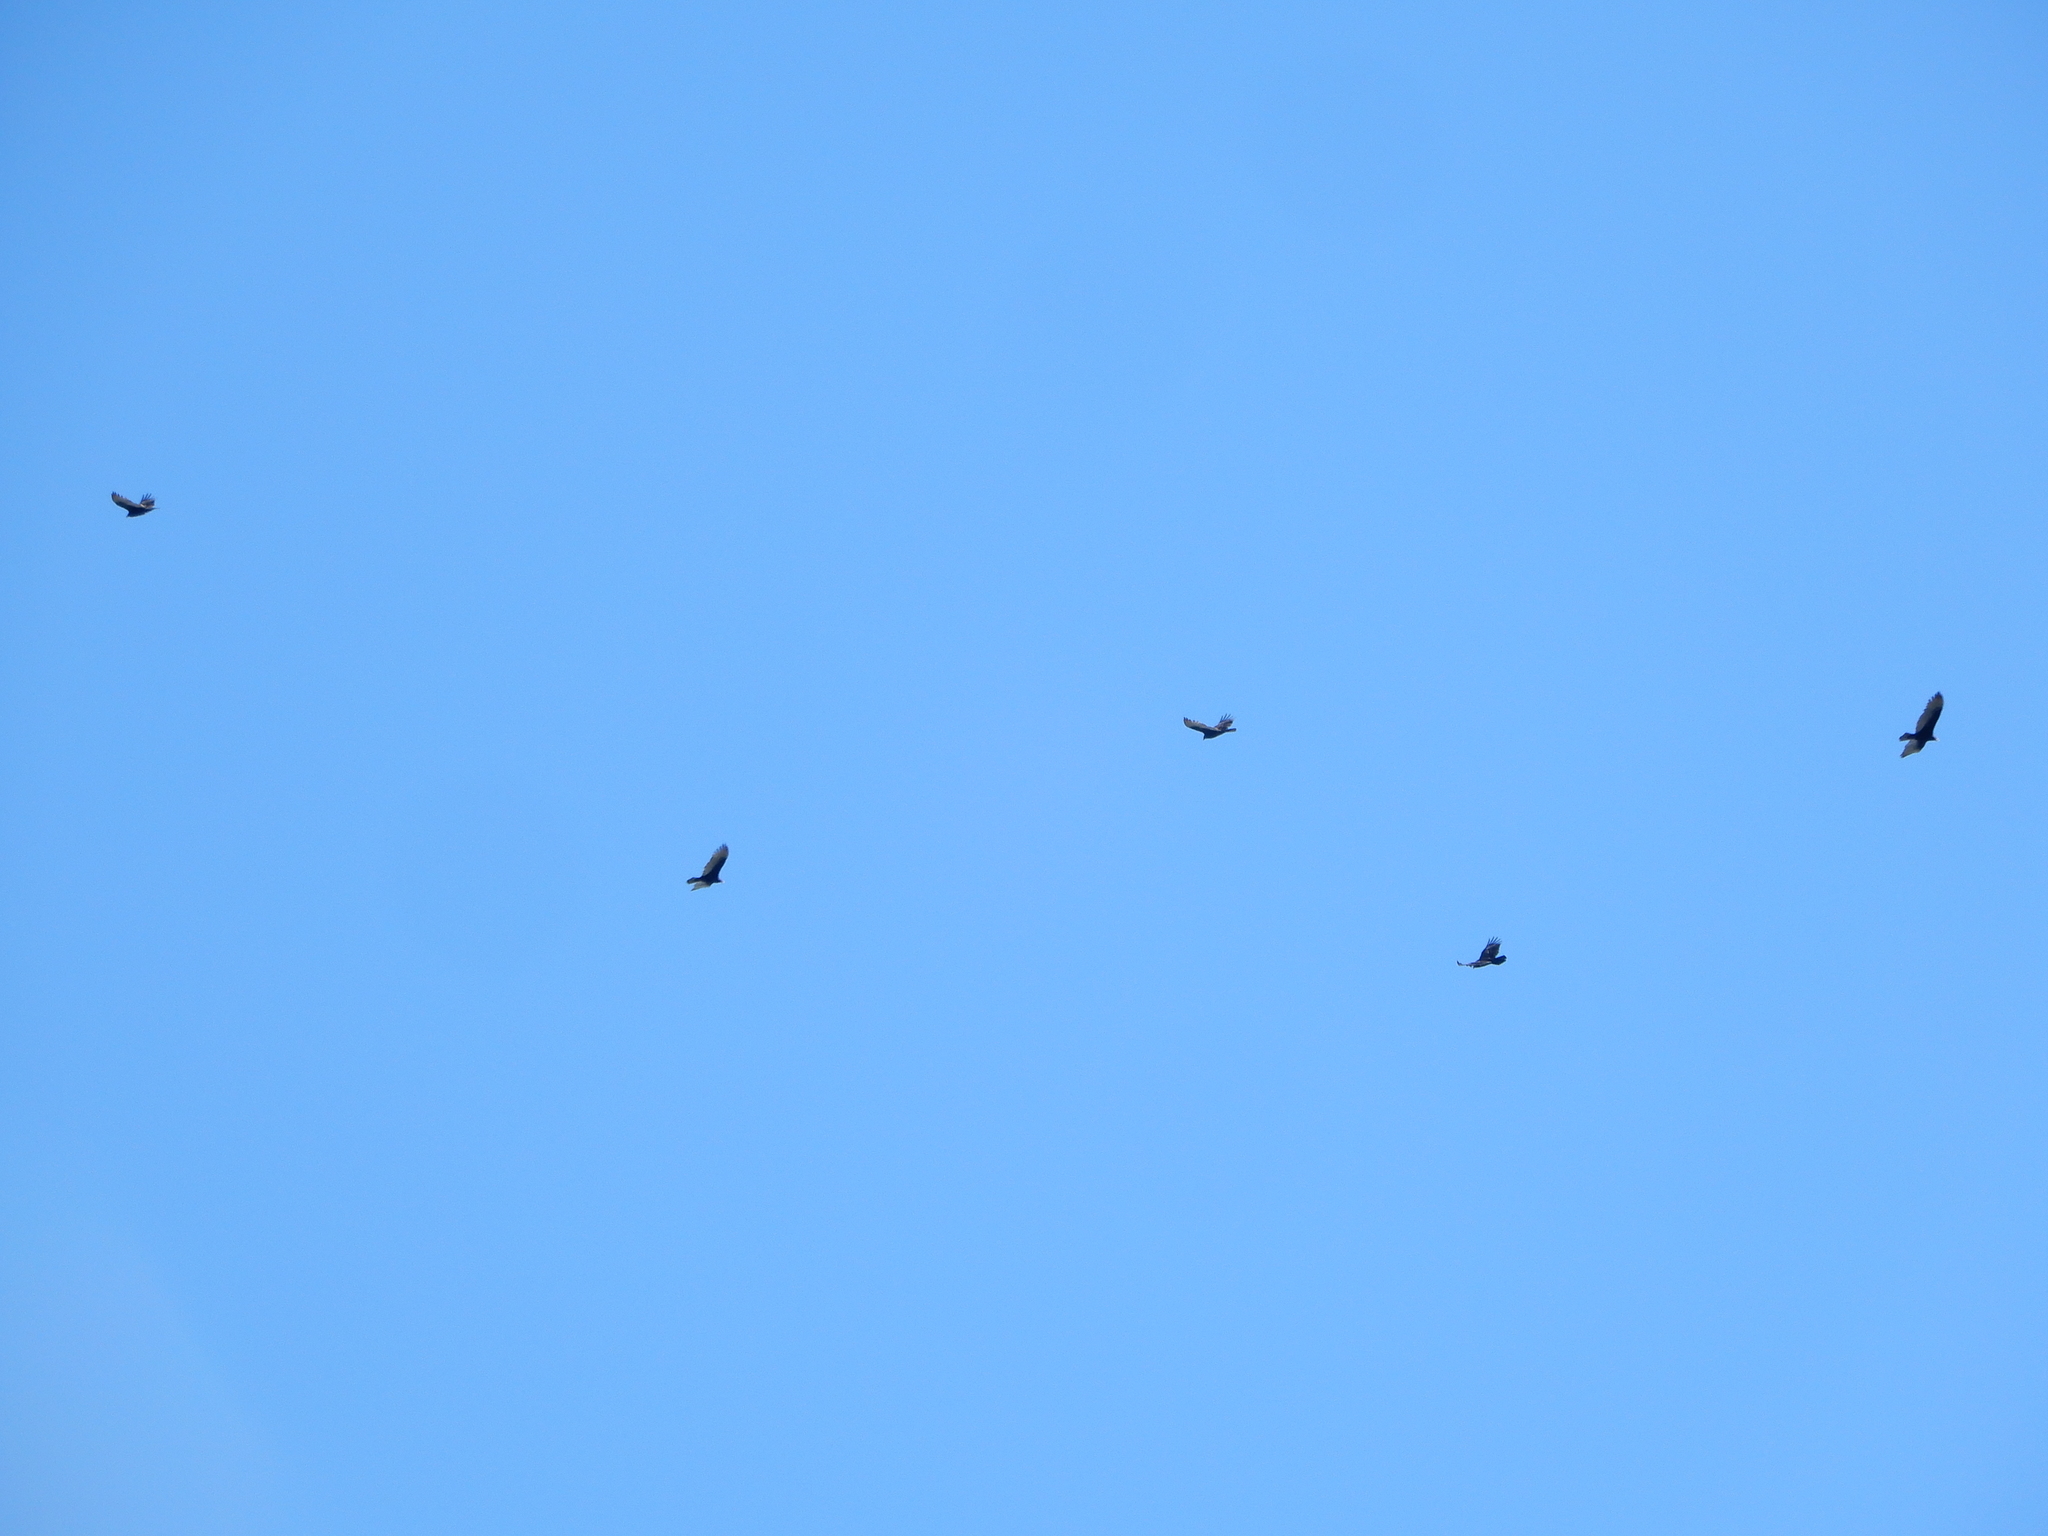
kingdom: Animalia
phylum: Chordata
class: Aves
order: Accipitriformes
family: Cathartidae
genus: Cathartes
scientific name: Cathartes aura
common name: Turkey vulture
